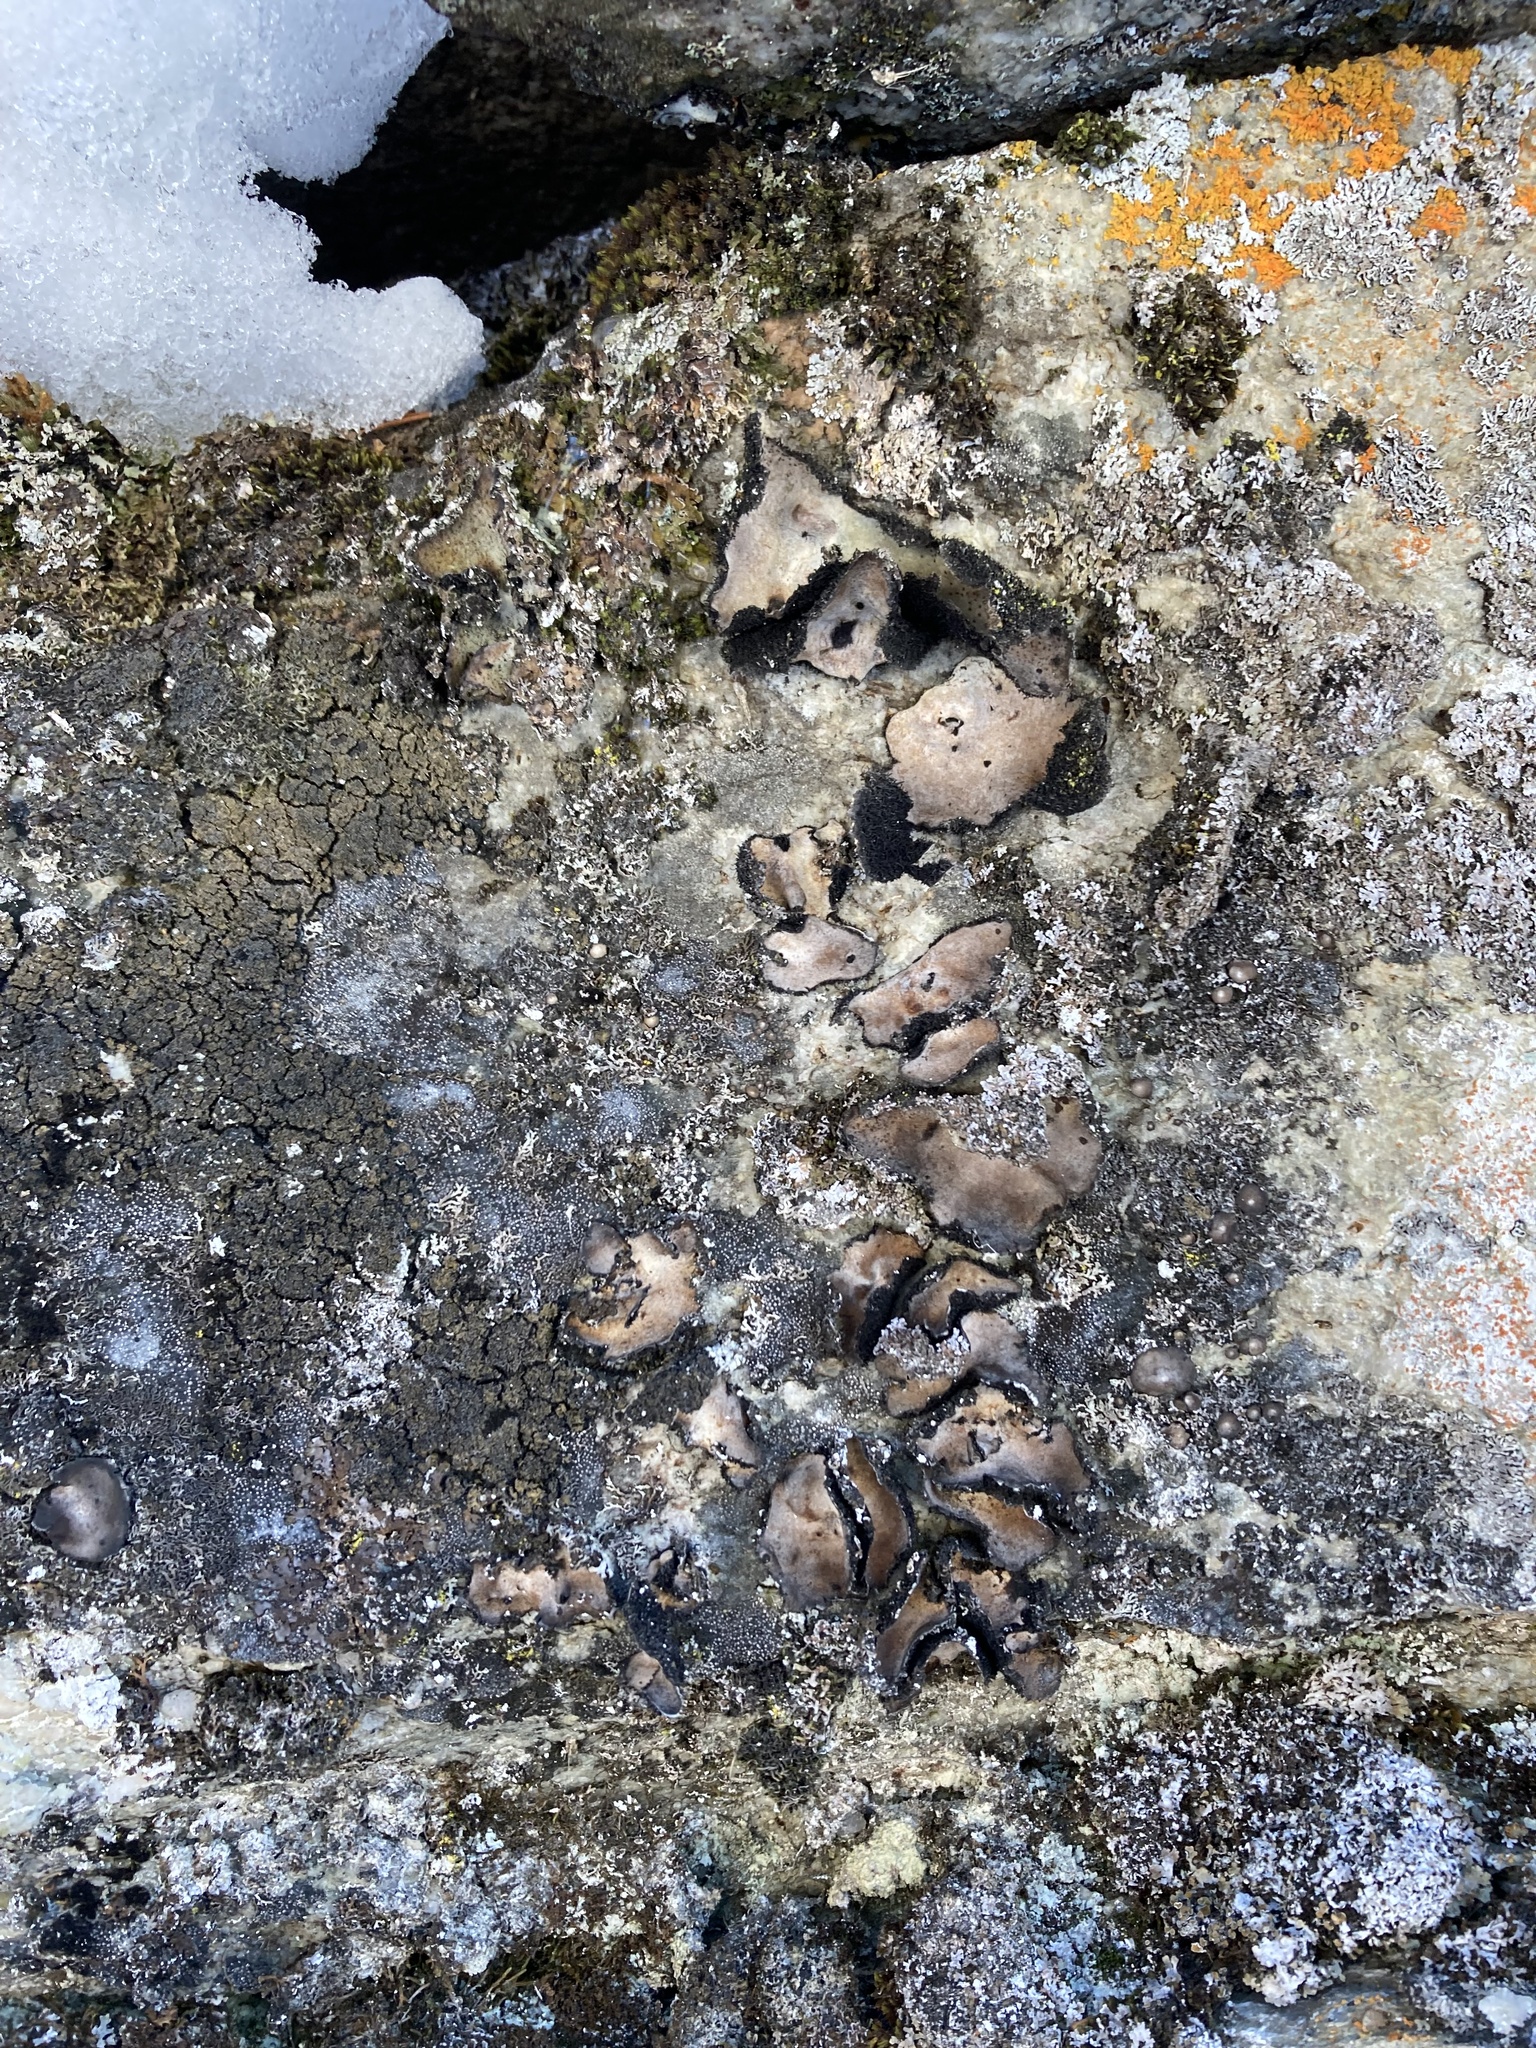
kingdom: Fungi
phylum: Ascomycota
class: Lecanoromycetes
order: Umbilicariales
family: Umbilicariaceae
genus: Umbilicaria
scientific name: Umbilicaria americana
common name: Frosted rock tripe
